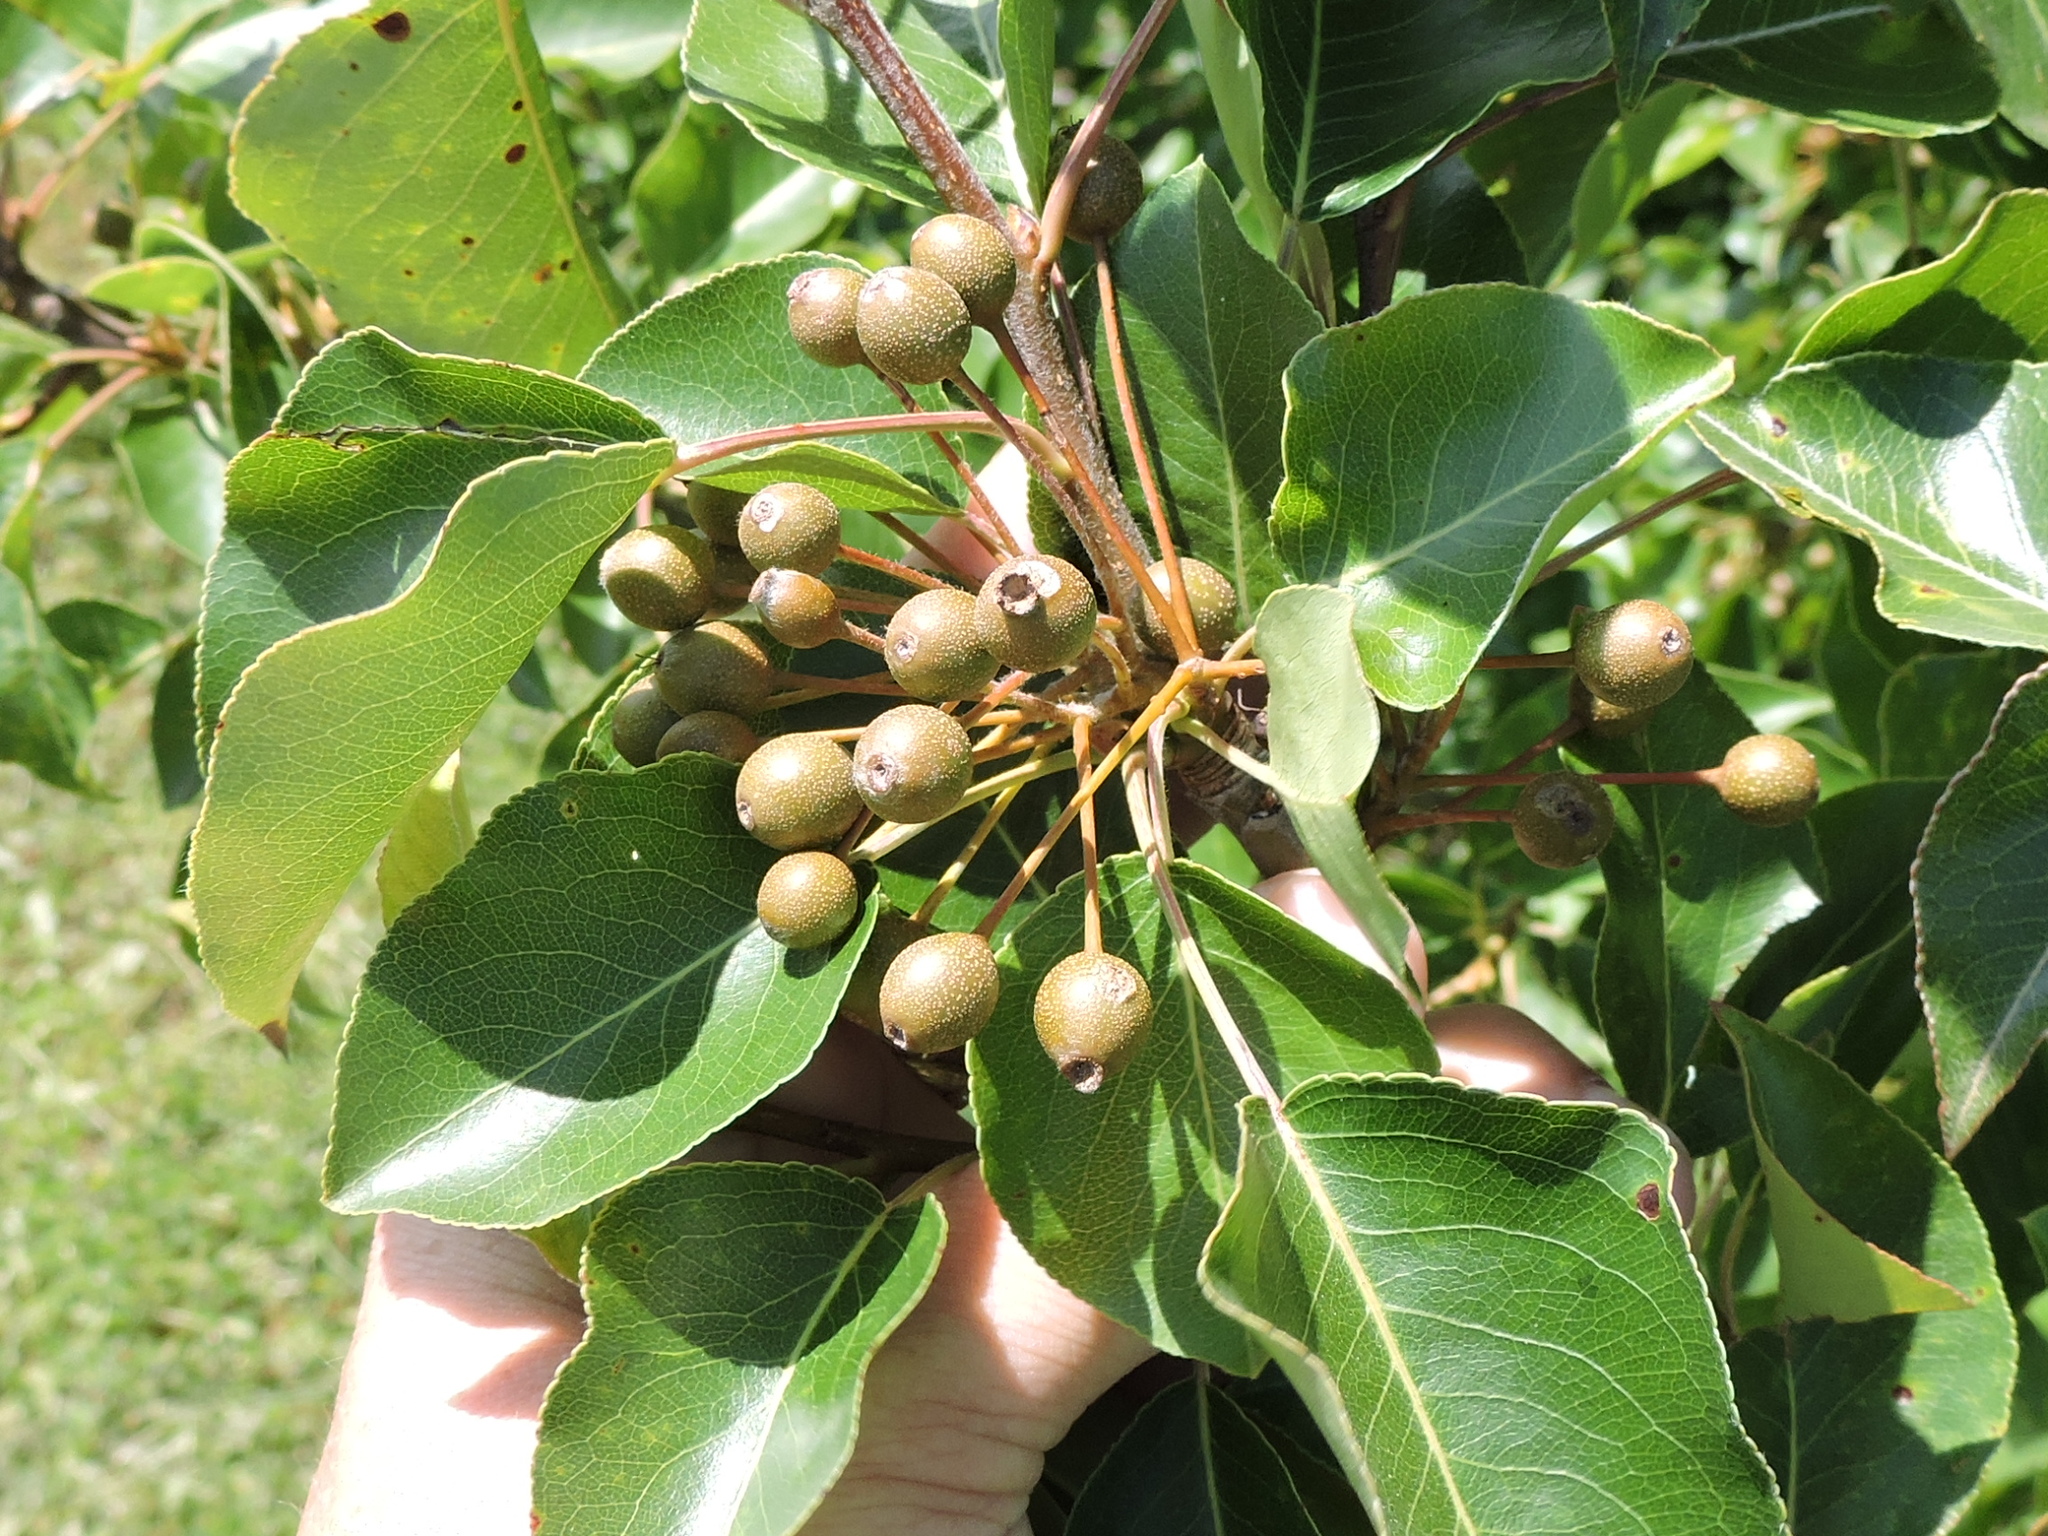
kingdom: Plantae
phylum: Tracheophyta
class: Magnoliopsida
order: Rosales
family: Rosaceae
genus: Pyrus
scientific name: Pyrus calleryana
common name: Callery pear
